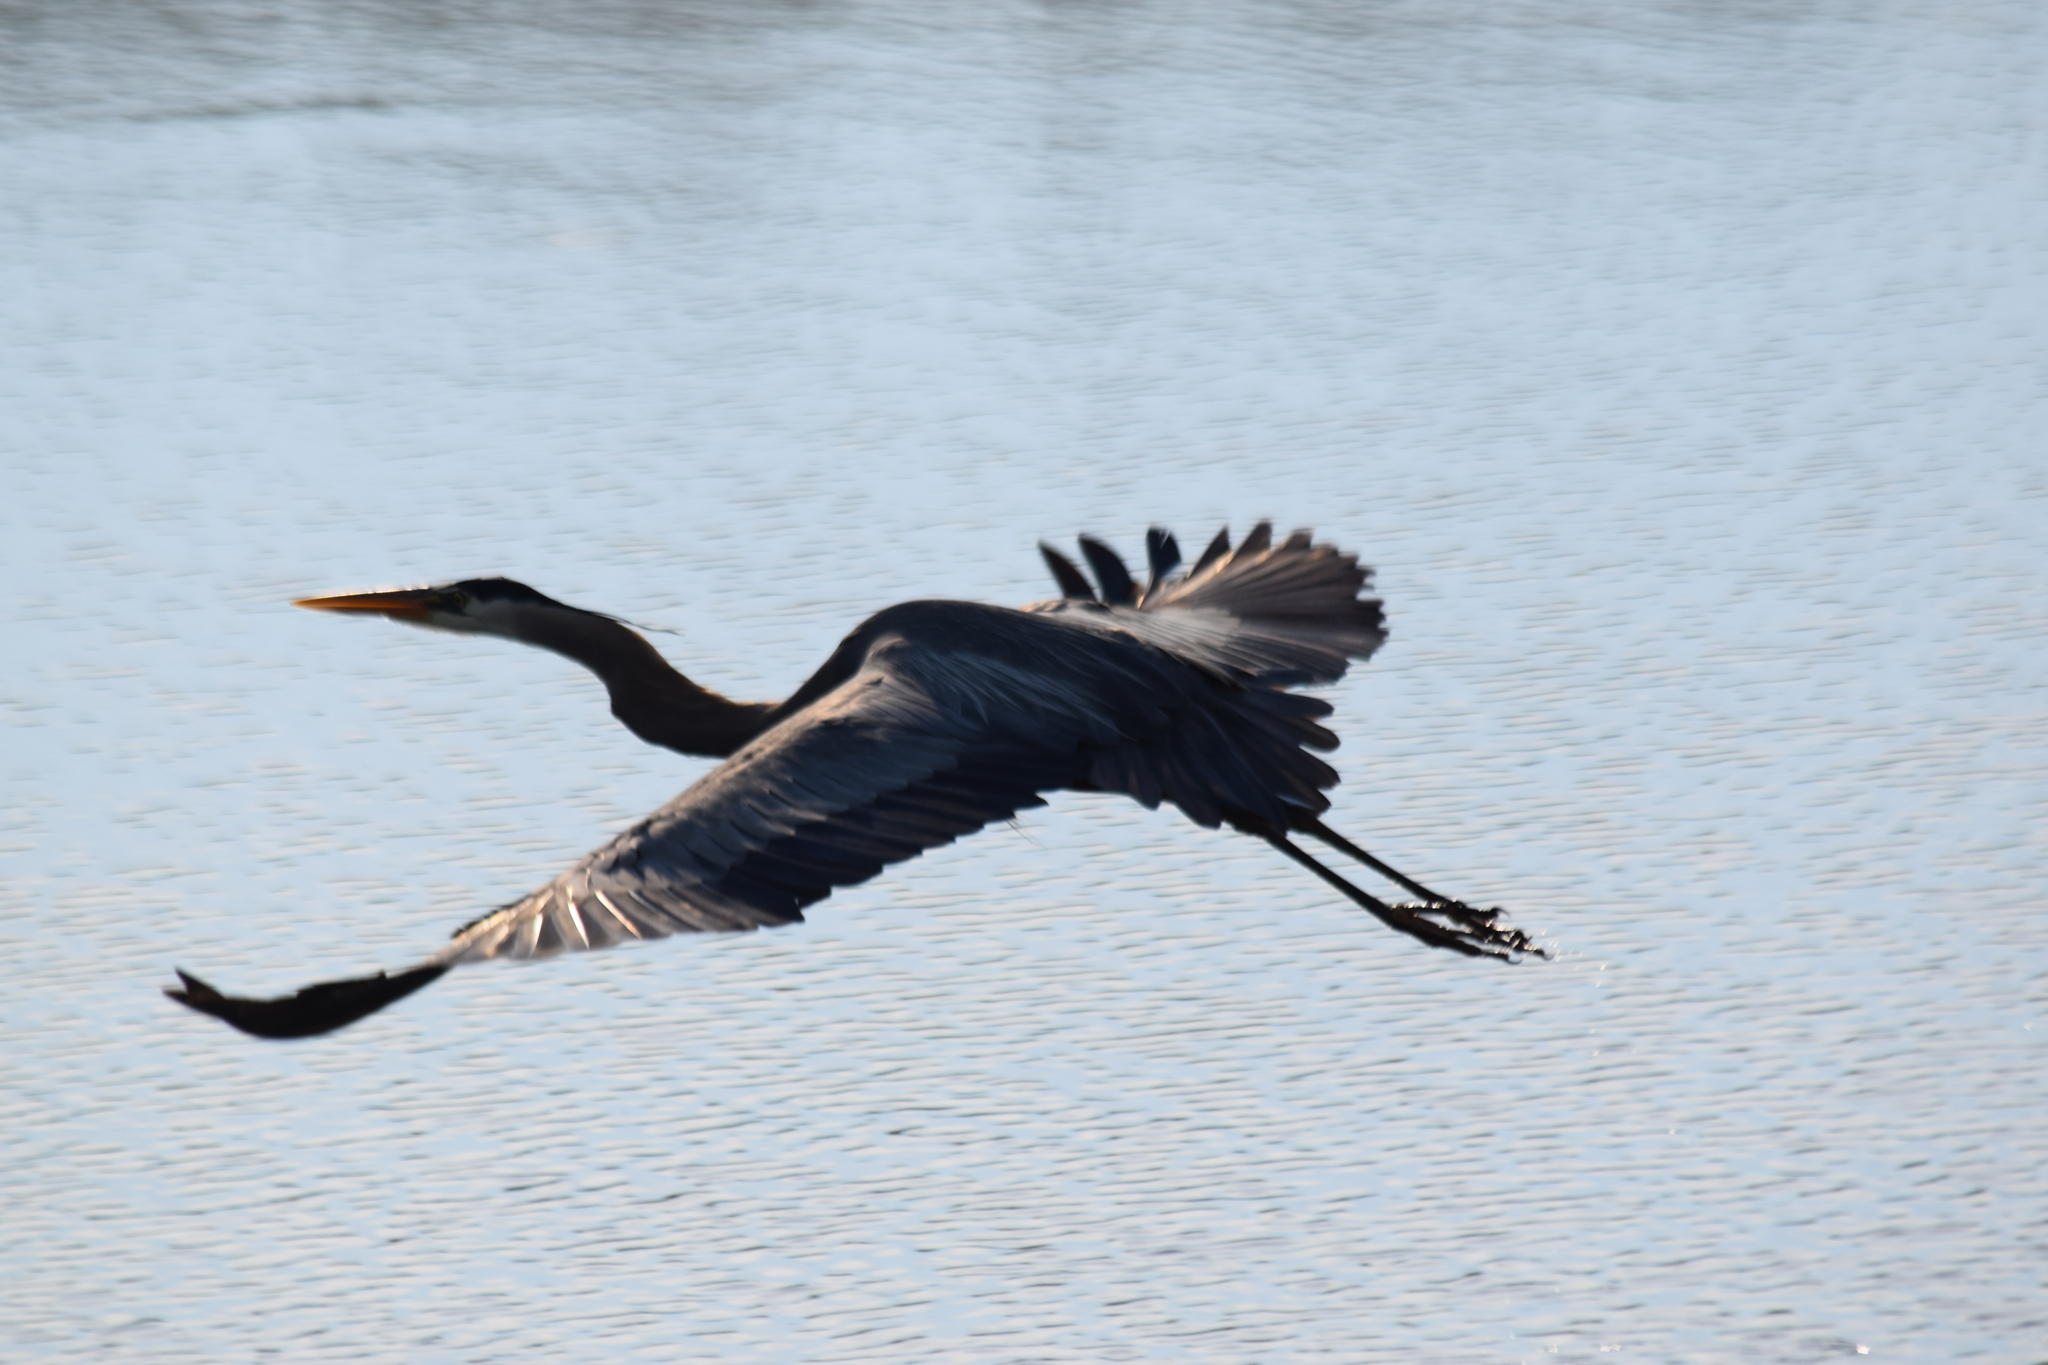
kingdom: Animalia
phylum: Chordata
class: Aves
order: Pelecaniformes
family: Ardeidae
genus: Ardea
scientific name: Ardea herodias
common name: Great blue heron
